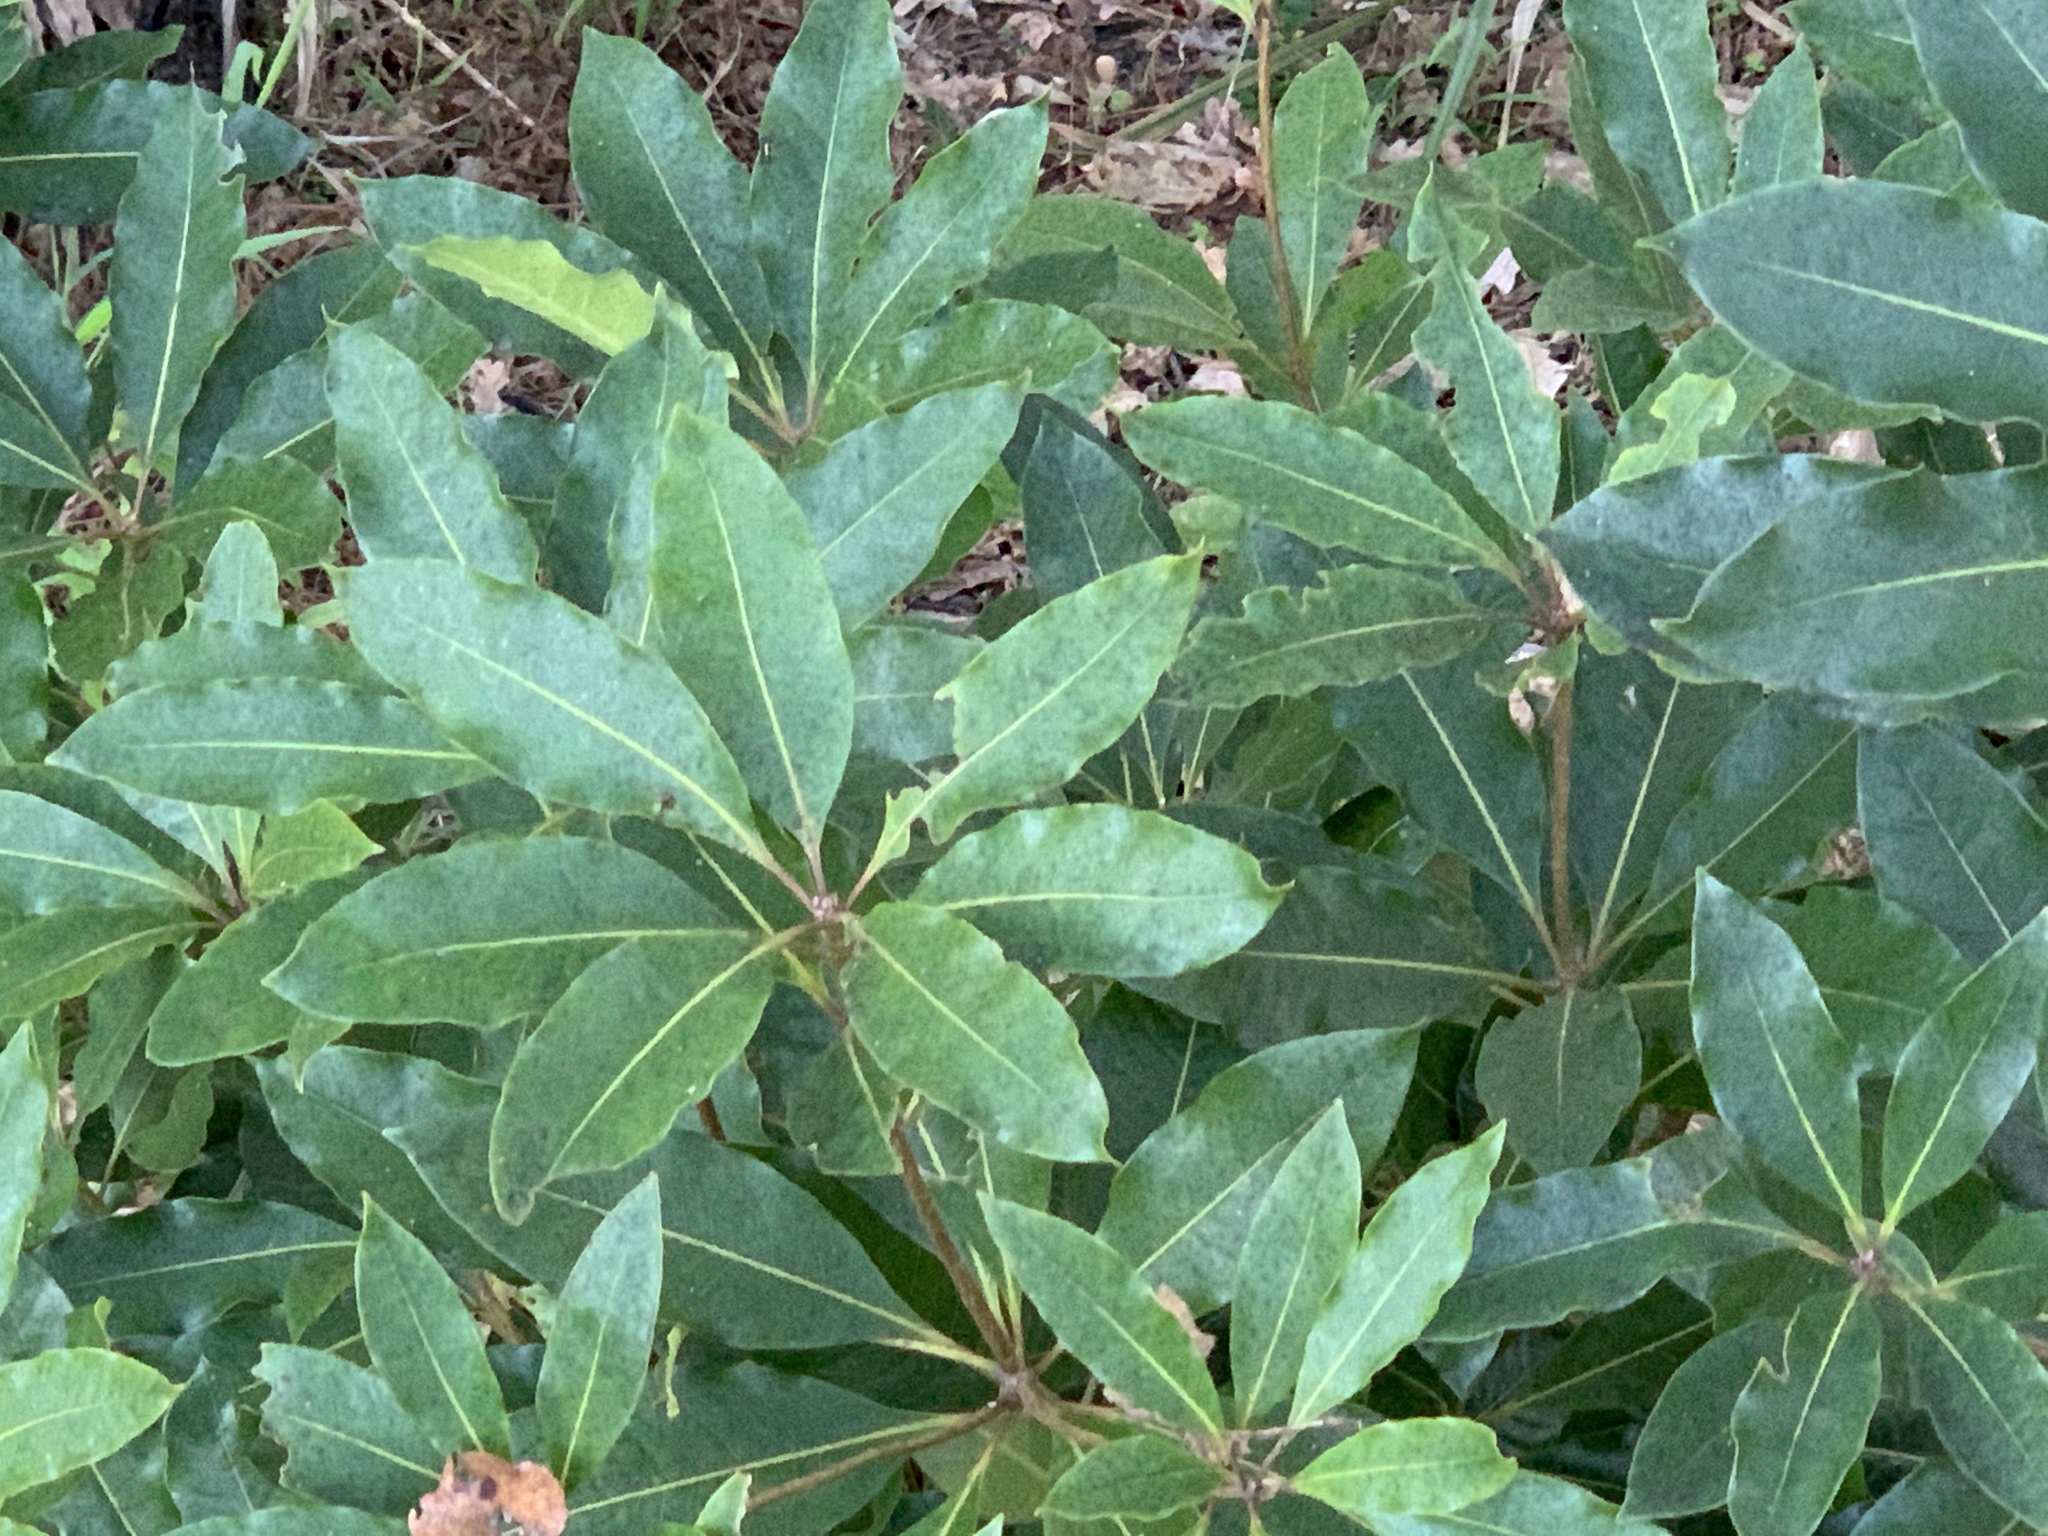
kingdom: Plantae
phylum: Tracheophyta
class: Magnoliopsida
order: Apiales
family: Pittosporaceae
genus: Pittosporum
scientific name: Pittosporum undulatum
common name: Australian cheesewood
